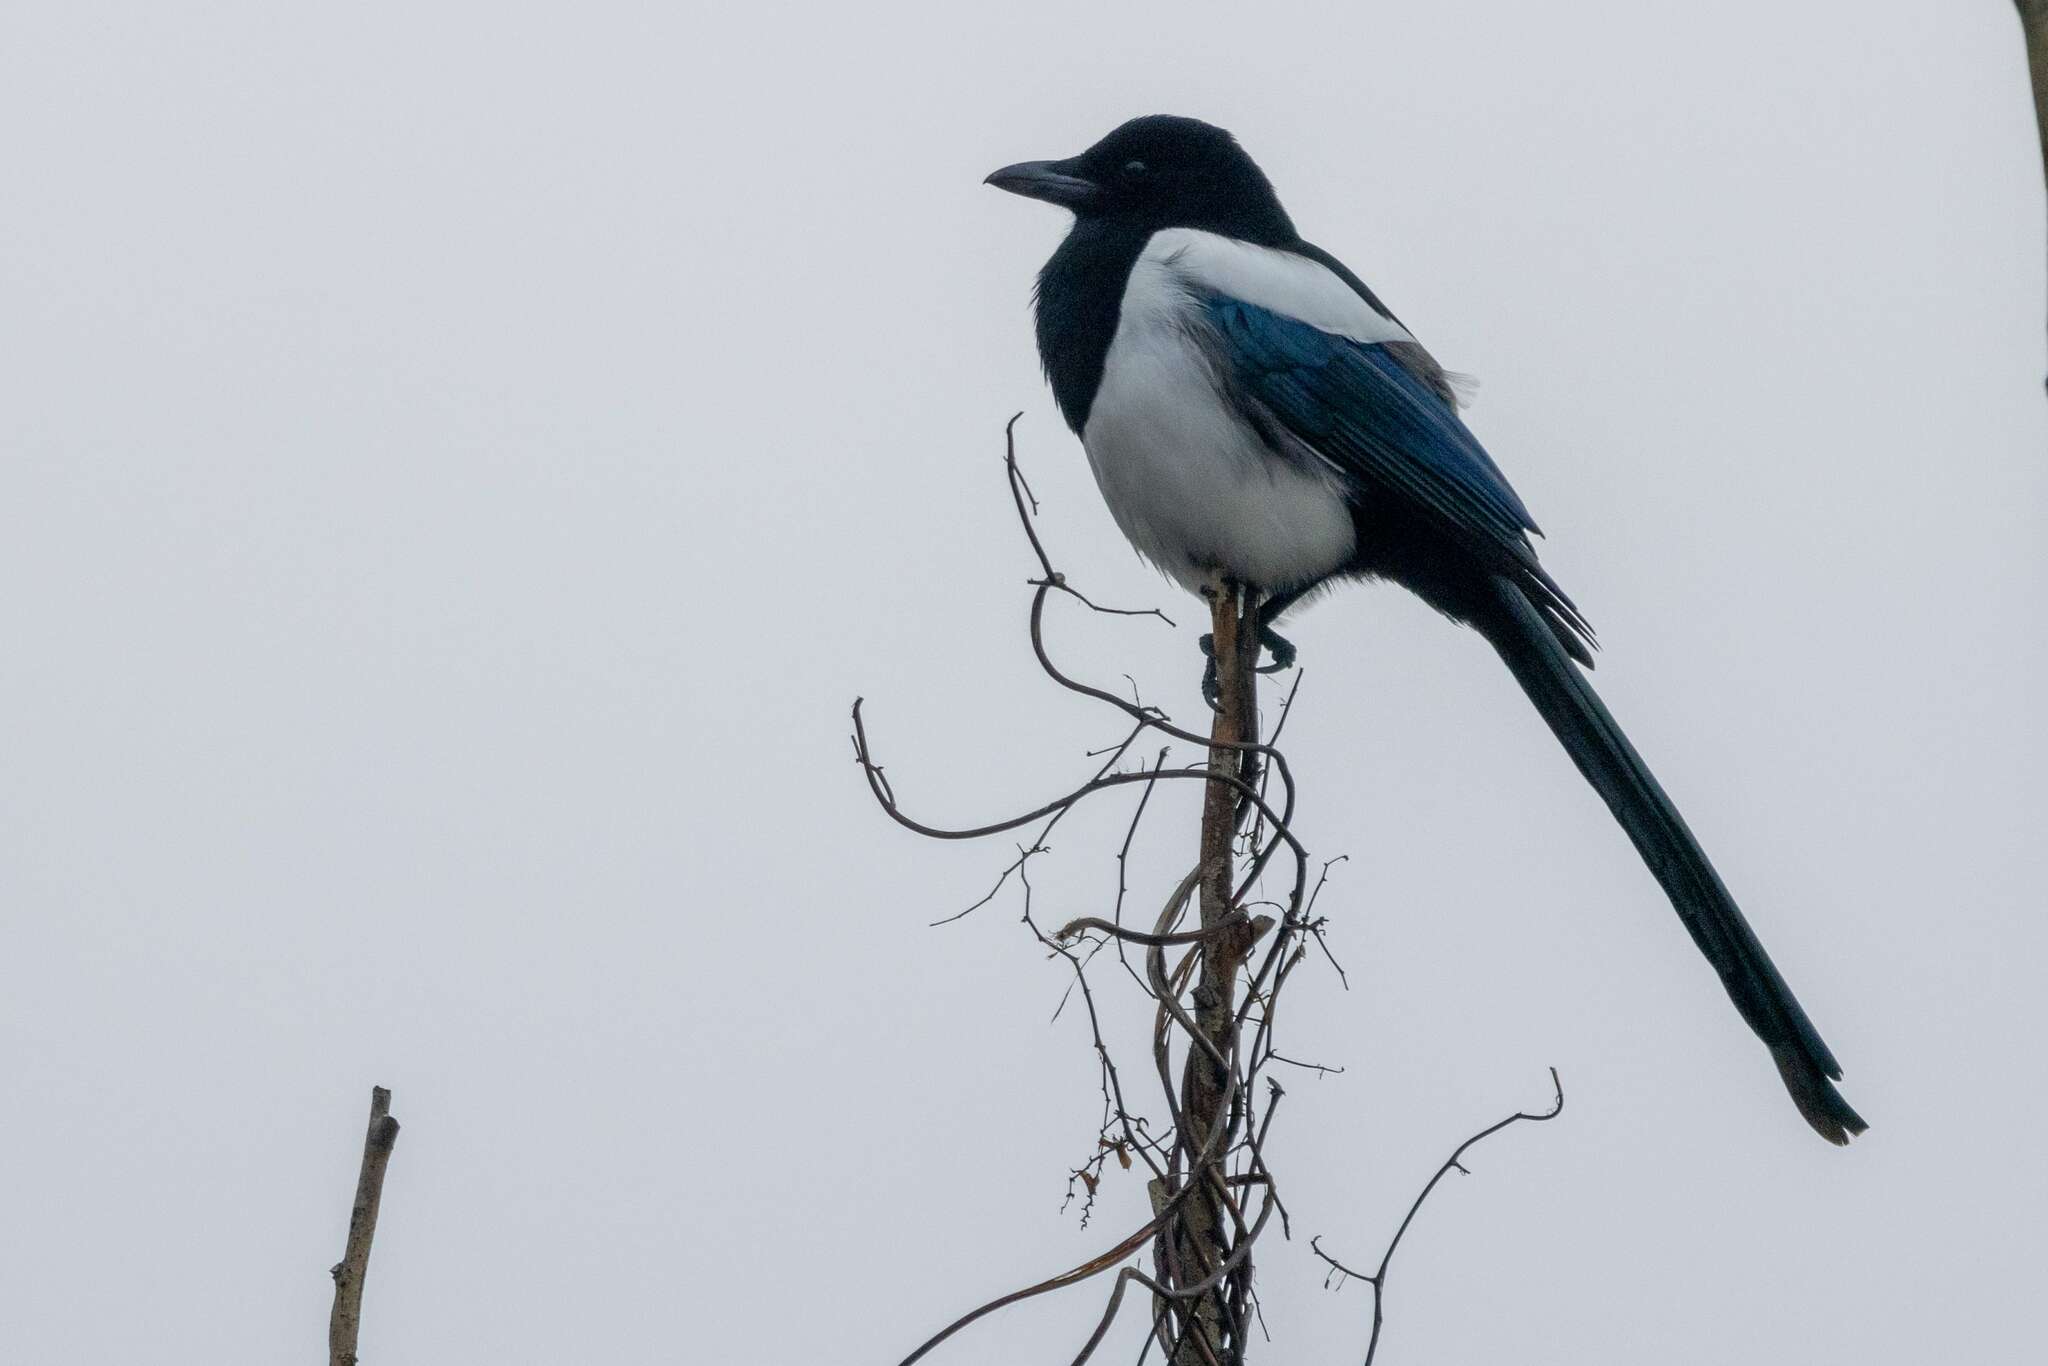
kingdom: Animalia
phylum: Chordata
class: Aves
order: Passeriformes
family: Corvidae
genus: Pica
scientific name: Pica pica
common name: Eurasian magpie
